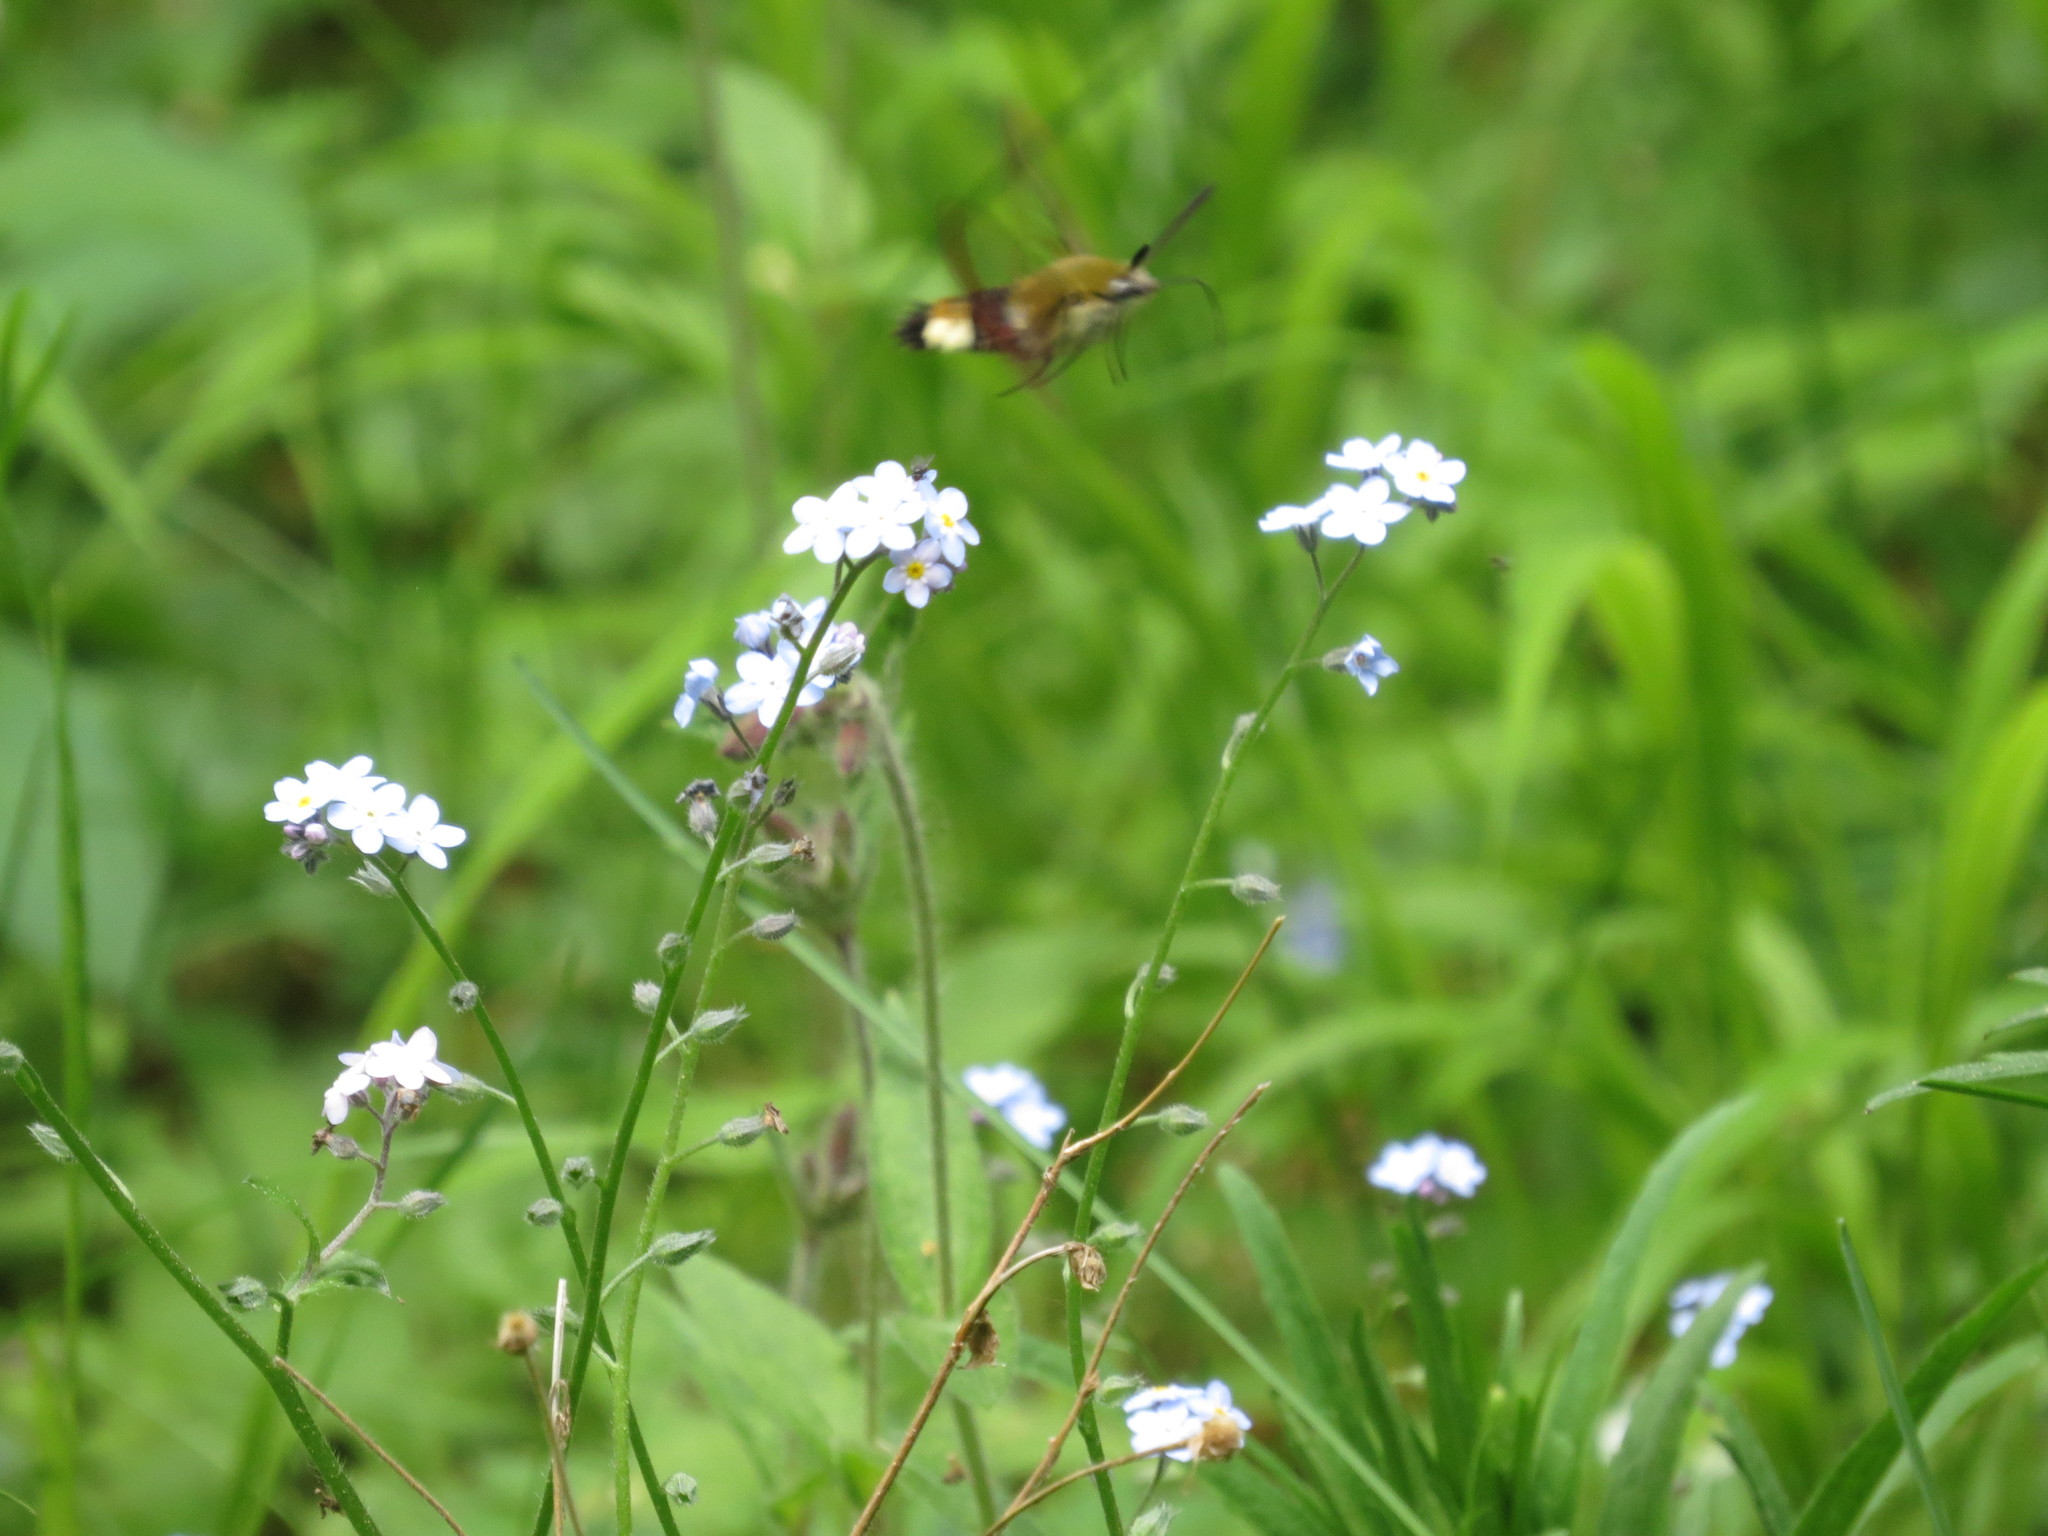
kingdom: Animalia
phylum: Arthropoda
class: Insecta
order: Lepidoptera
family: Sphingidae
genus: Hemaris
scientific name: Hemaris fuciformis
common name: Broad-bordered bee hawk-moth
